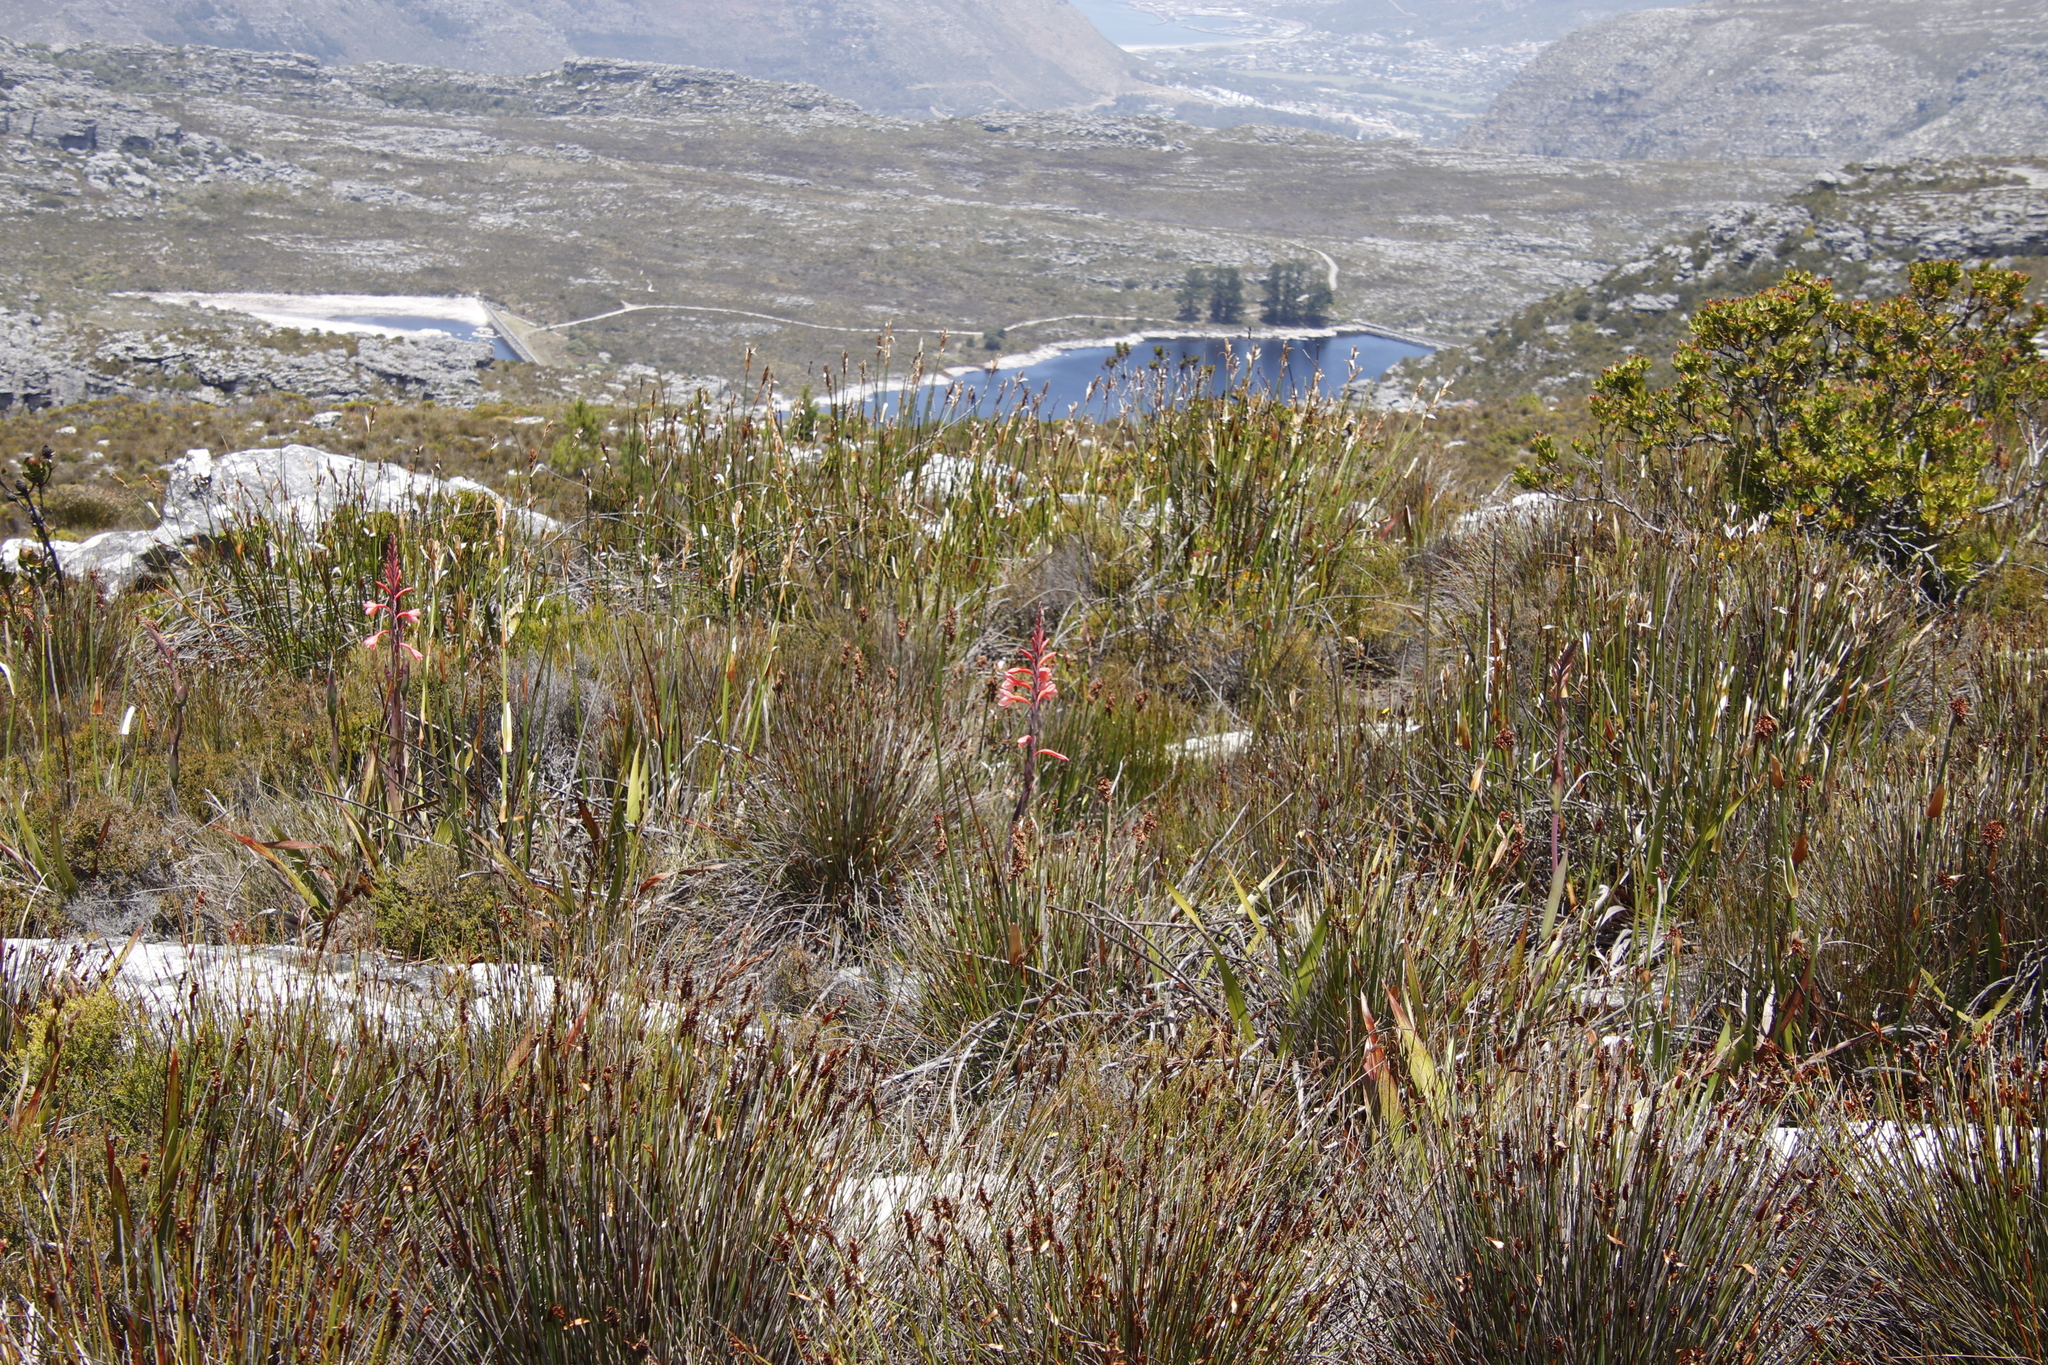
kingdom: Plantae
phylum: Tracheophyta
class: Liliopsida
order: Poales
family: Restionaceae
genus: Elegia
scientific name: Elegia mucronata
